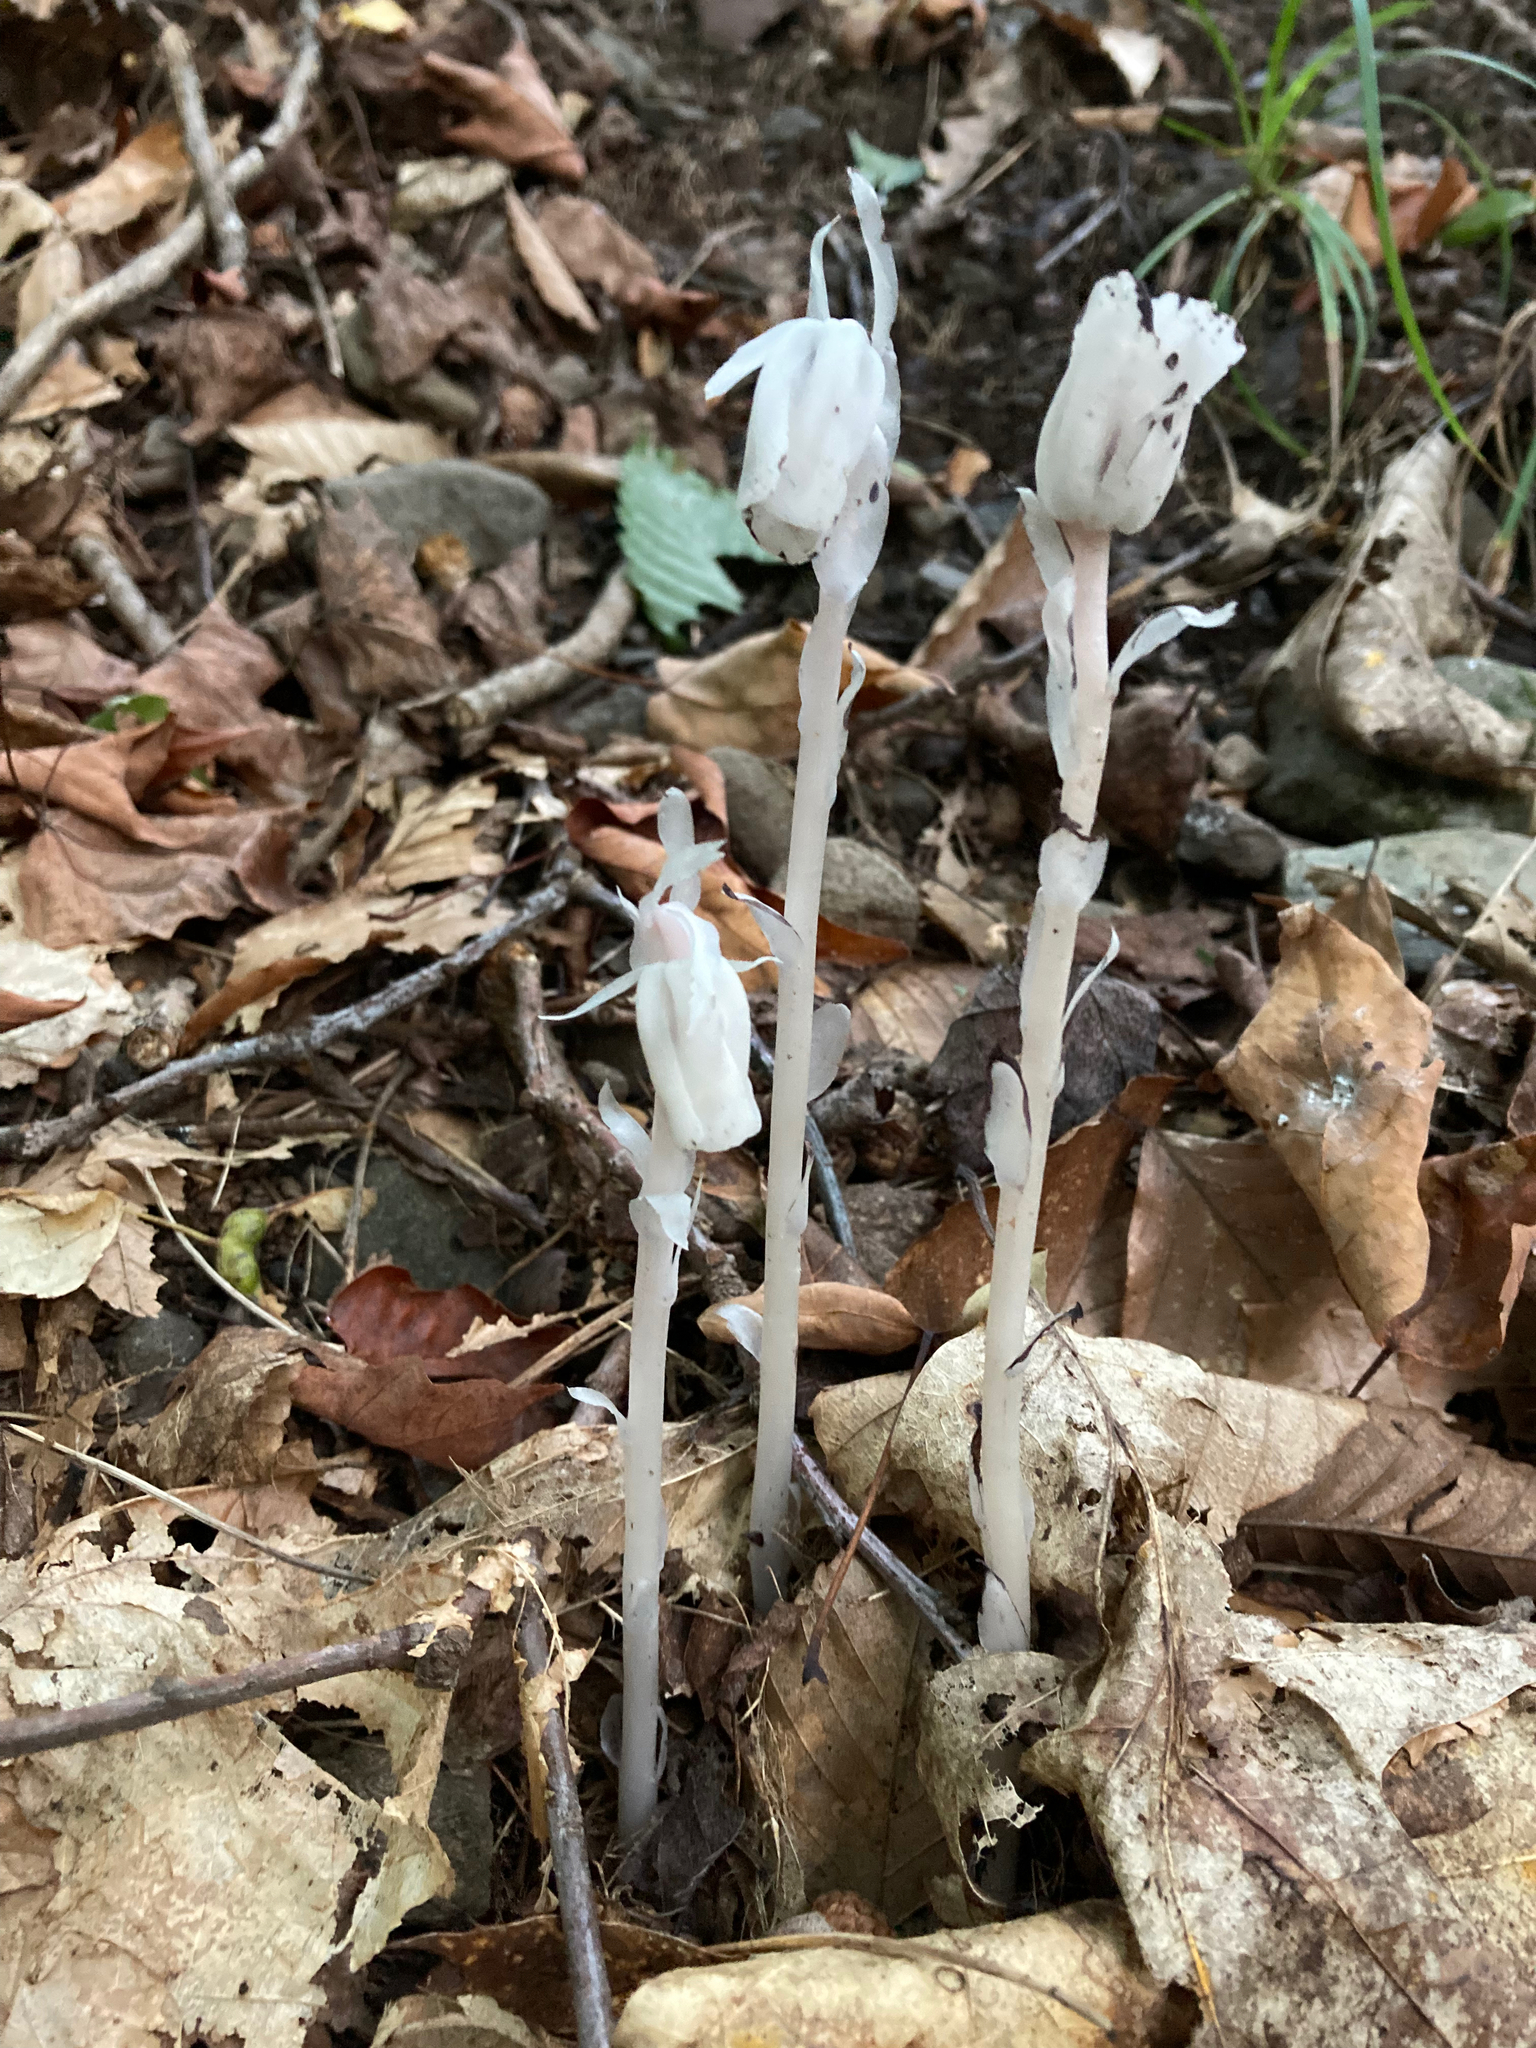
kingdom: Plantae
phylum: Tracheophyta
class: Magnoliopsida
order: Ericales
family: Ericaceae
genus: Monotropa
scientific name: Monotropa uniflora
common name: Convulsion root
